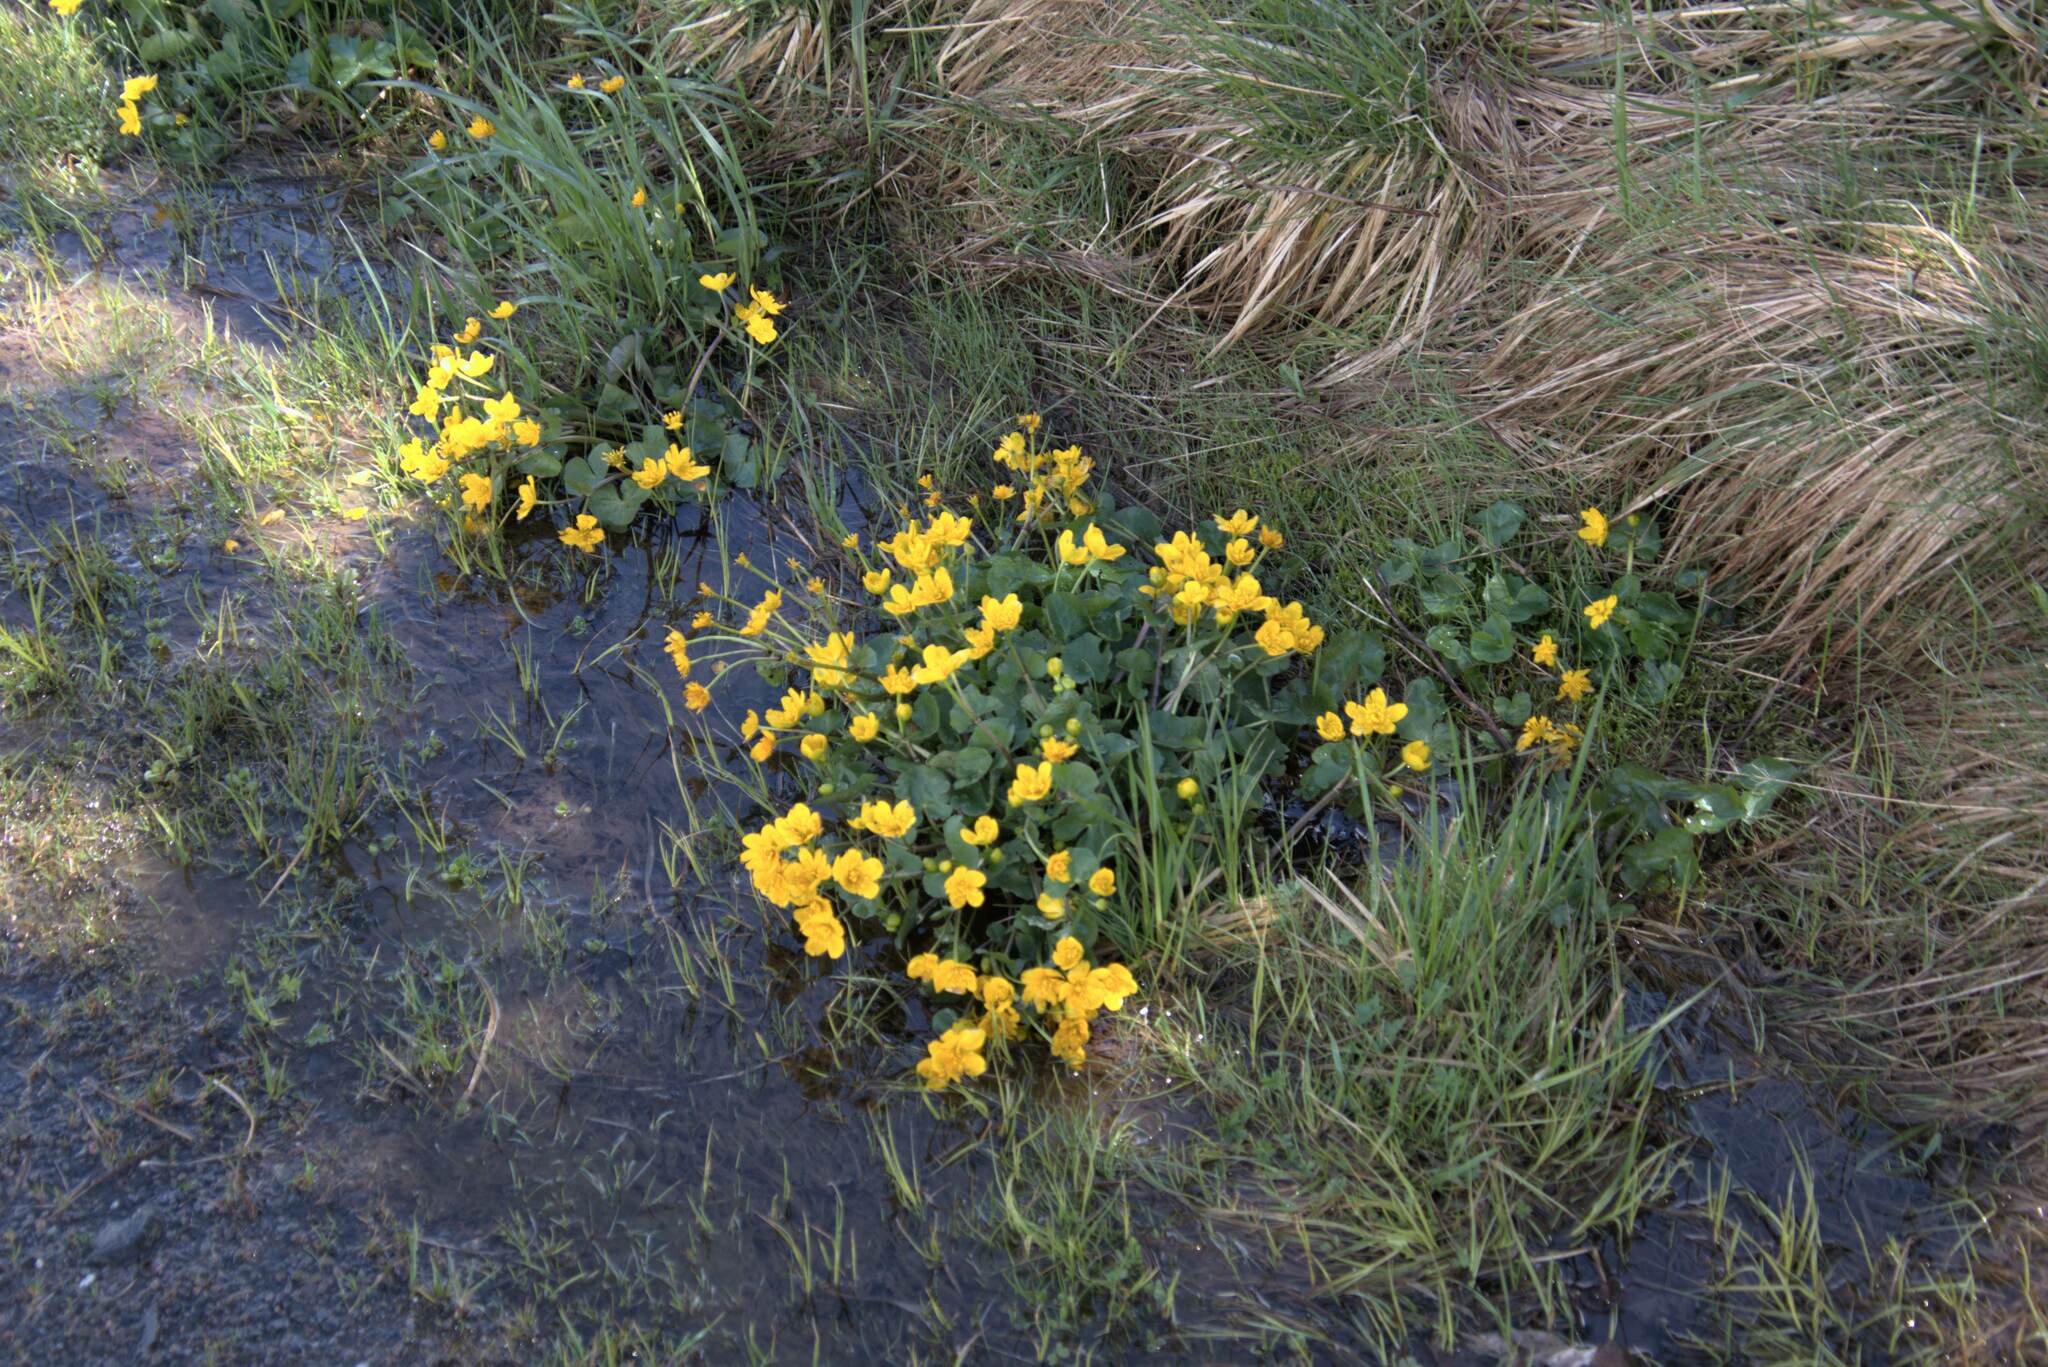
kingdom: Plantae
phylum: Tracheophyta
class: Magnoliopsida
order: Ranunculales
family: Ranunculaceae
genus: Caltha
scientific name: Caltha palustris
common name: Marsh marigold
